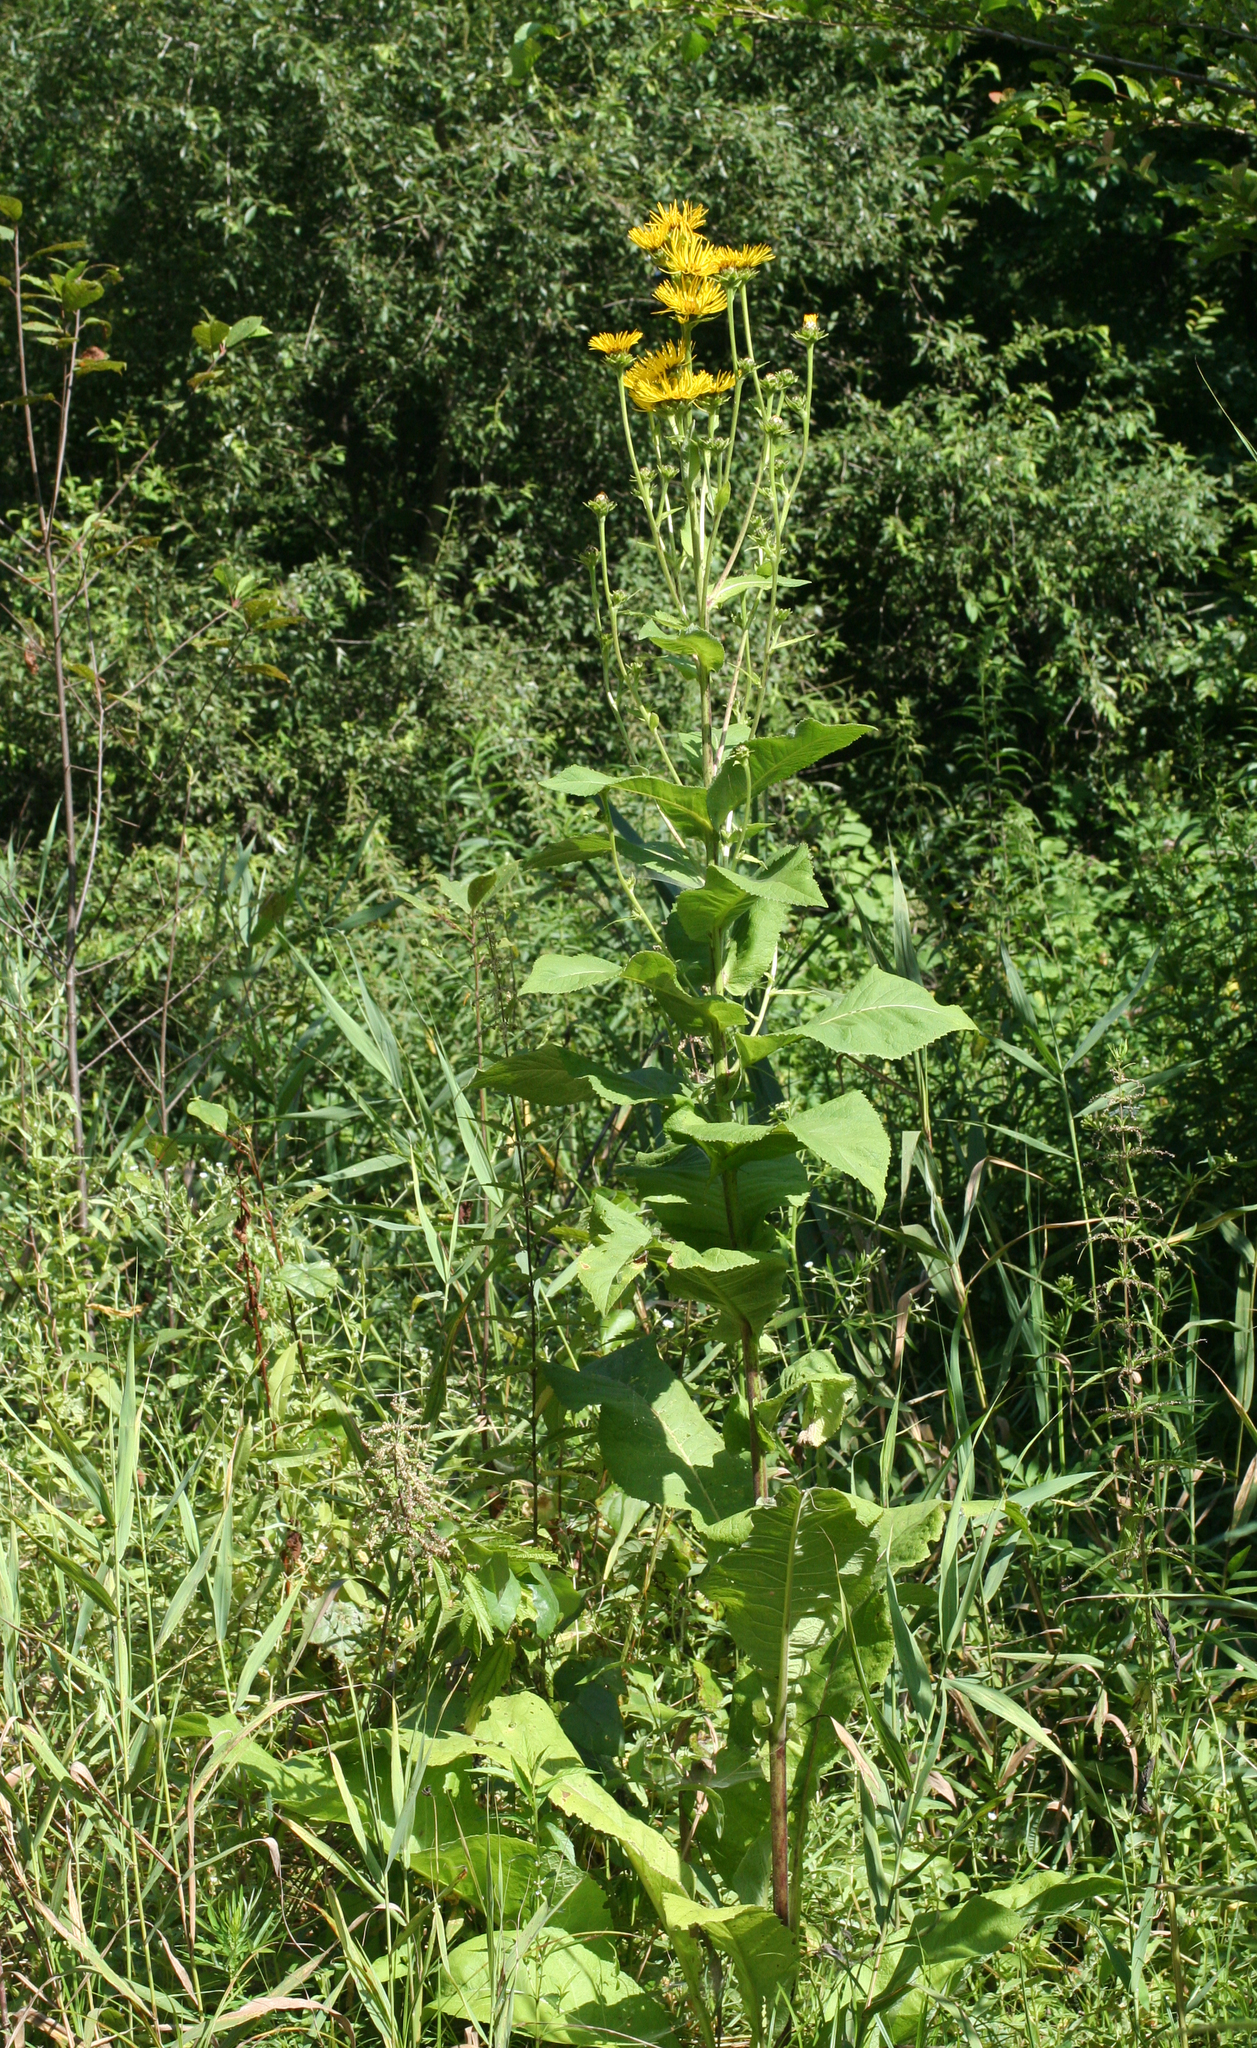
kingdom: Plantae
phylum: Tracheophyta
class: Magnoliopsida
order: Asterales
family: Asteraceae
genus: Inula
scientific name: Inula helenium
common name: Elecampane
